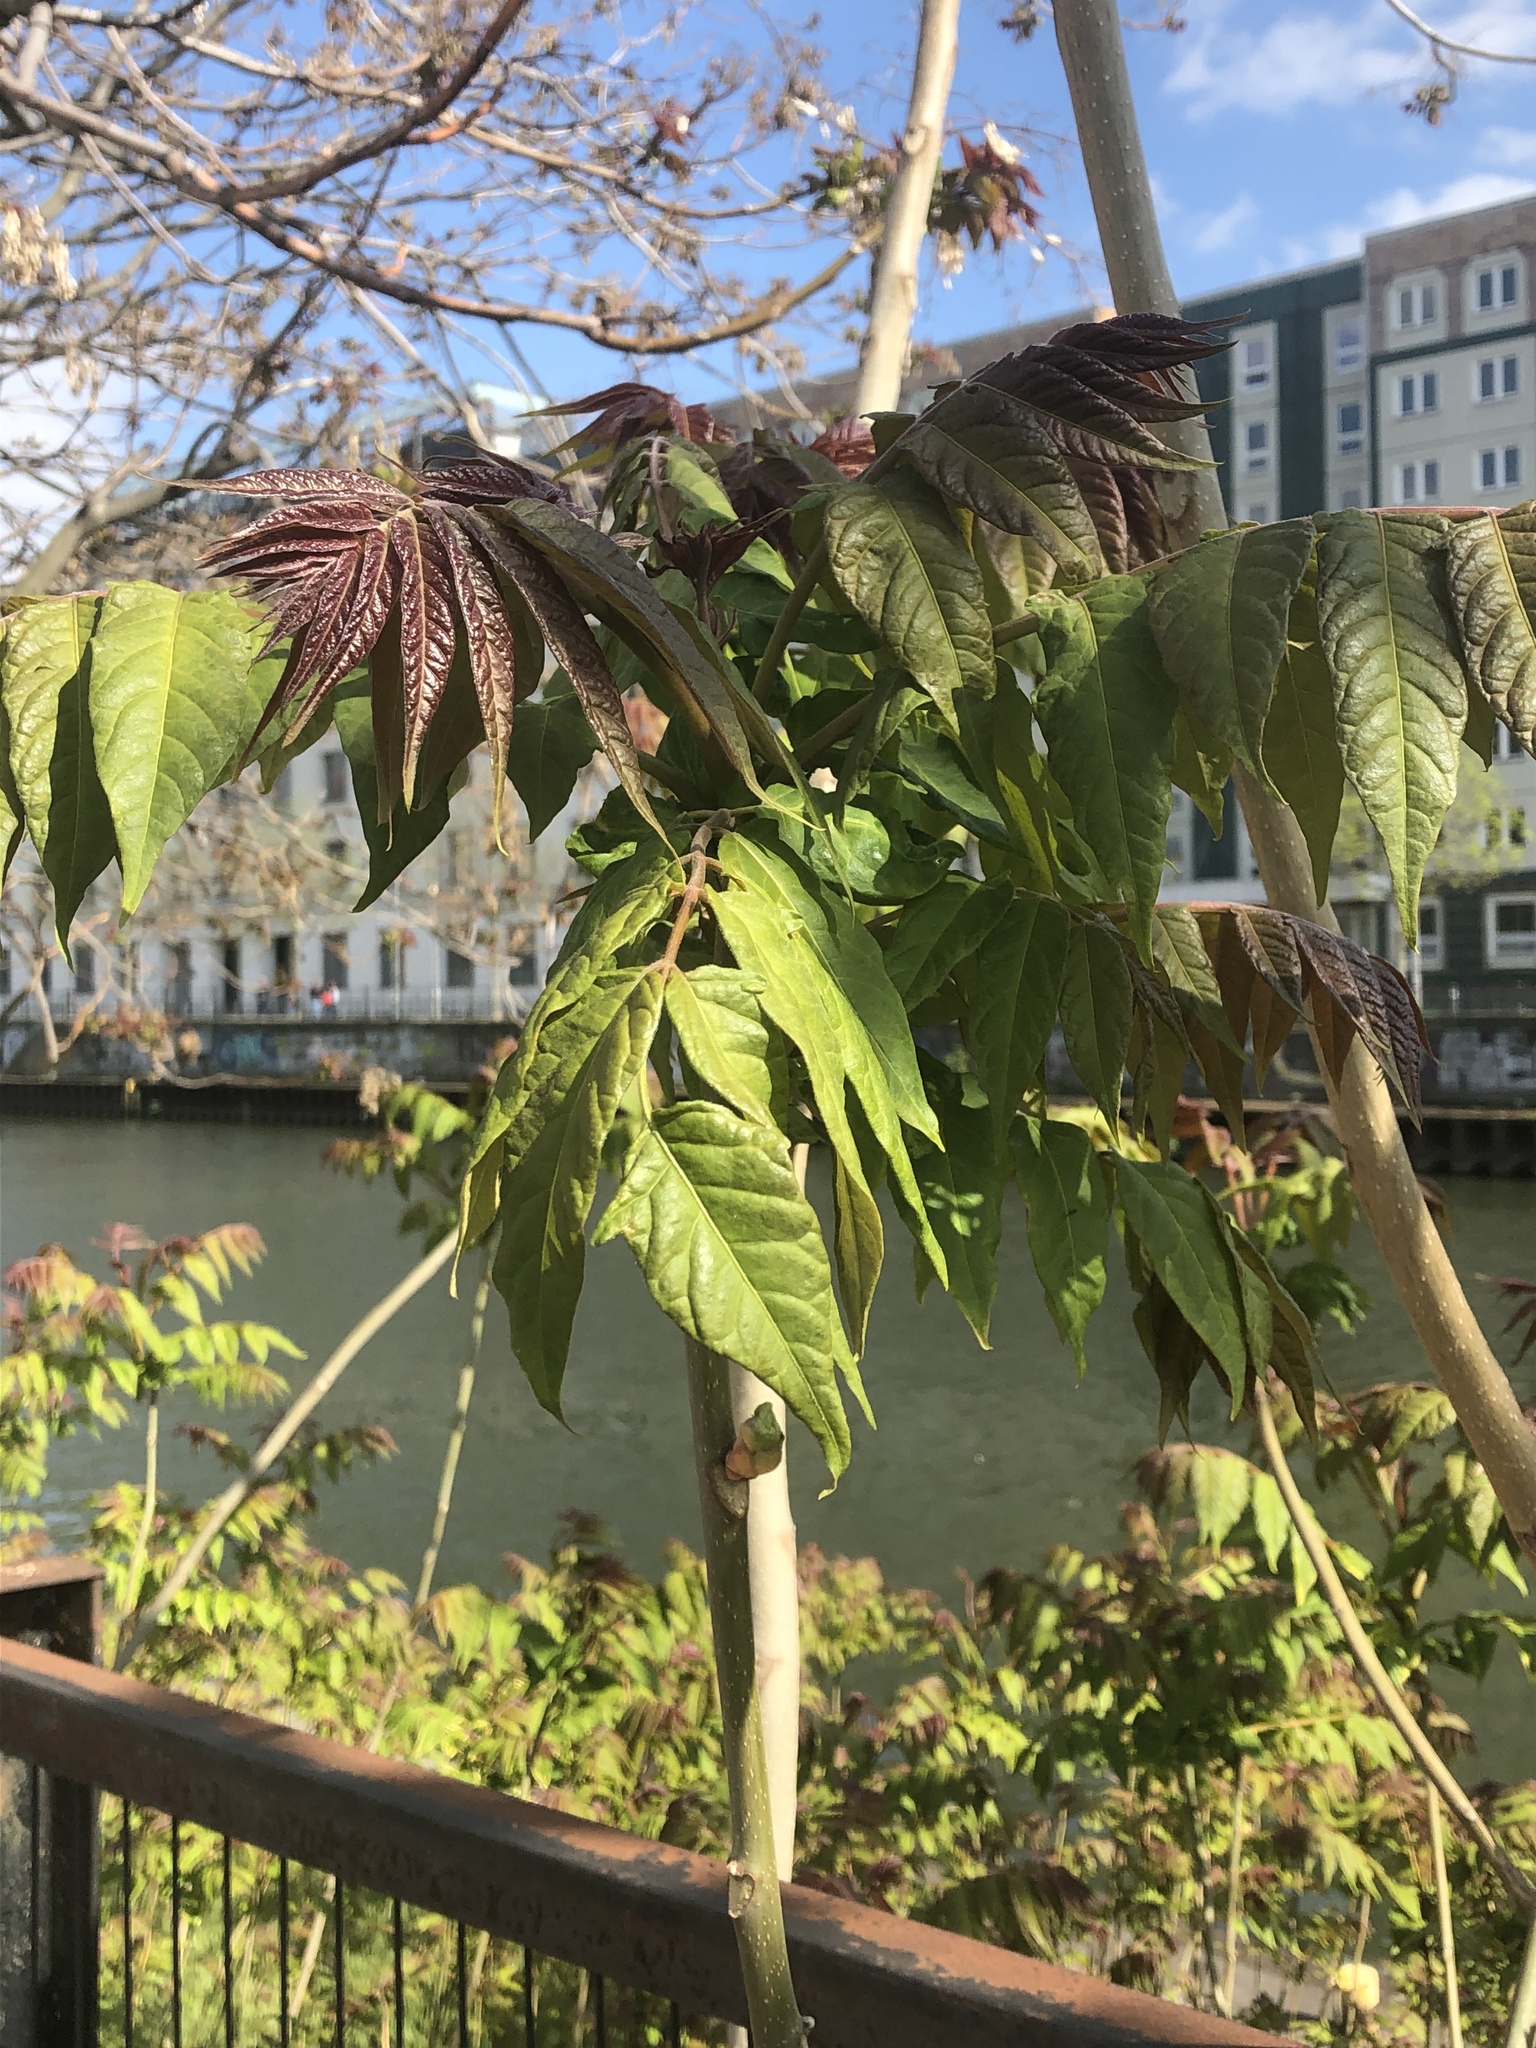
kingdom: Plantae
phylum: Tracheophyta
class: Magnoliopsida
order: Sapindales
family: Simaroubaceae
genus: Ailanthus
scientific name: Ailanthus altissima
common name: Tree-of-heaven
